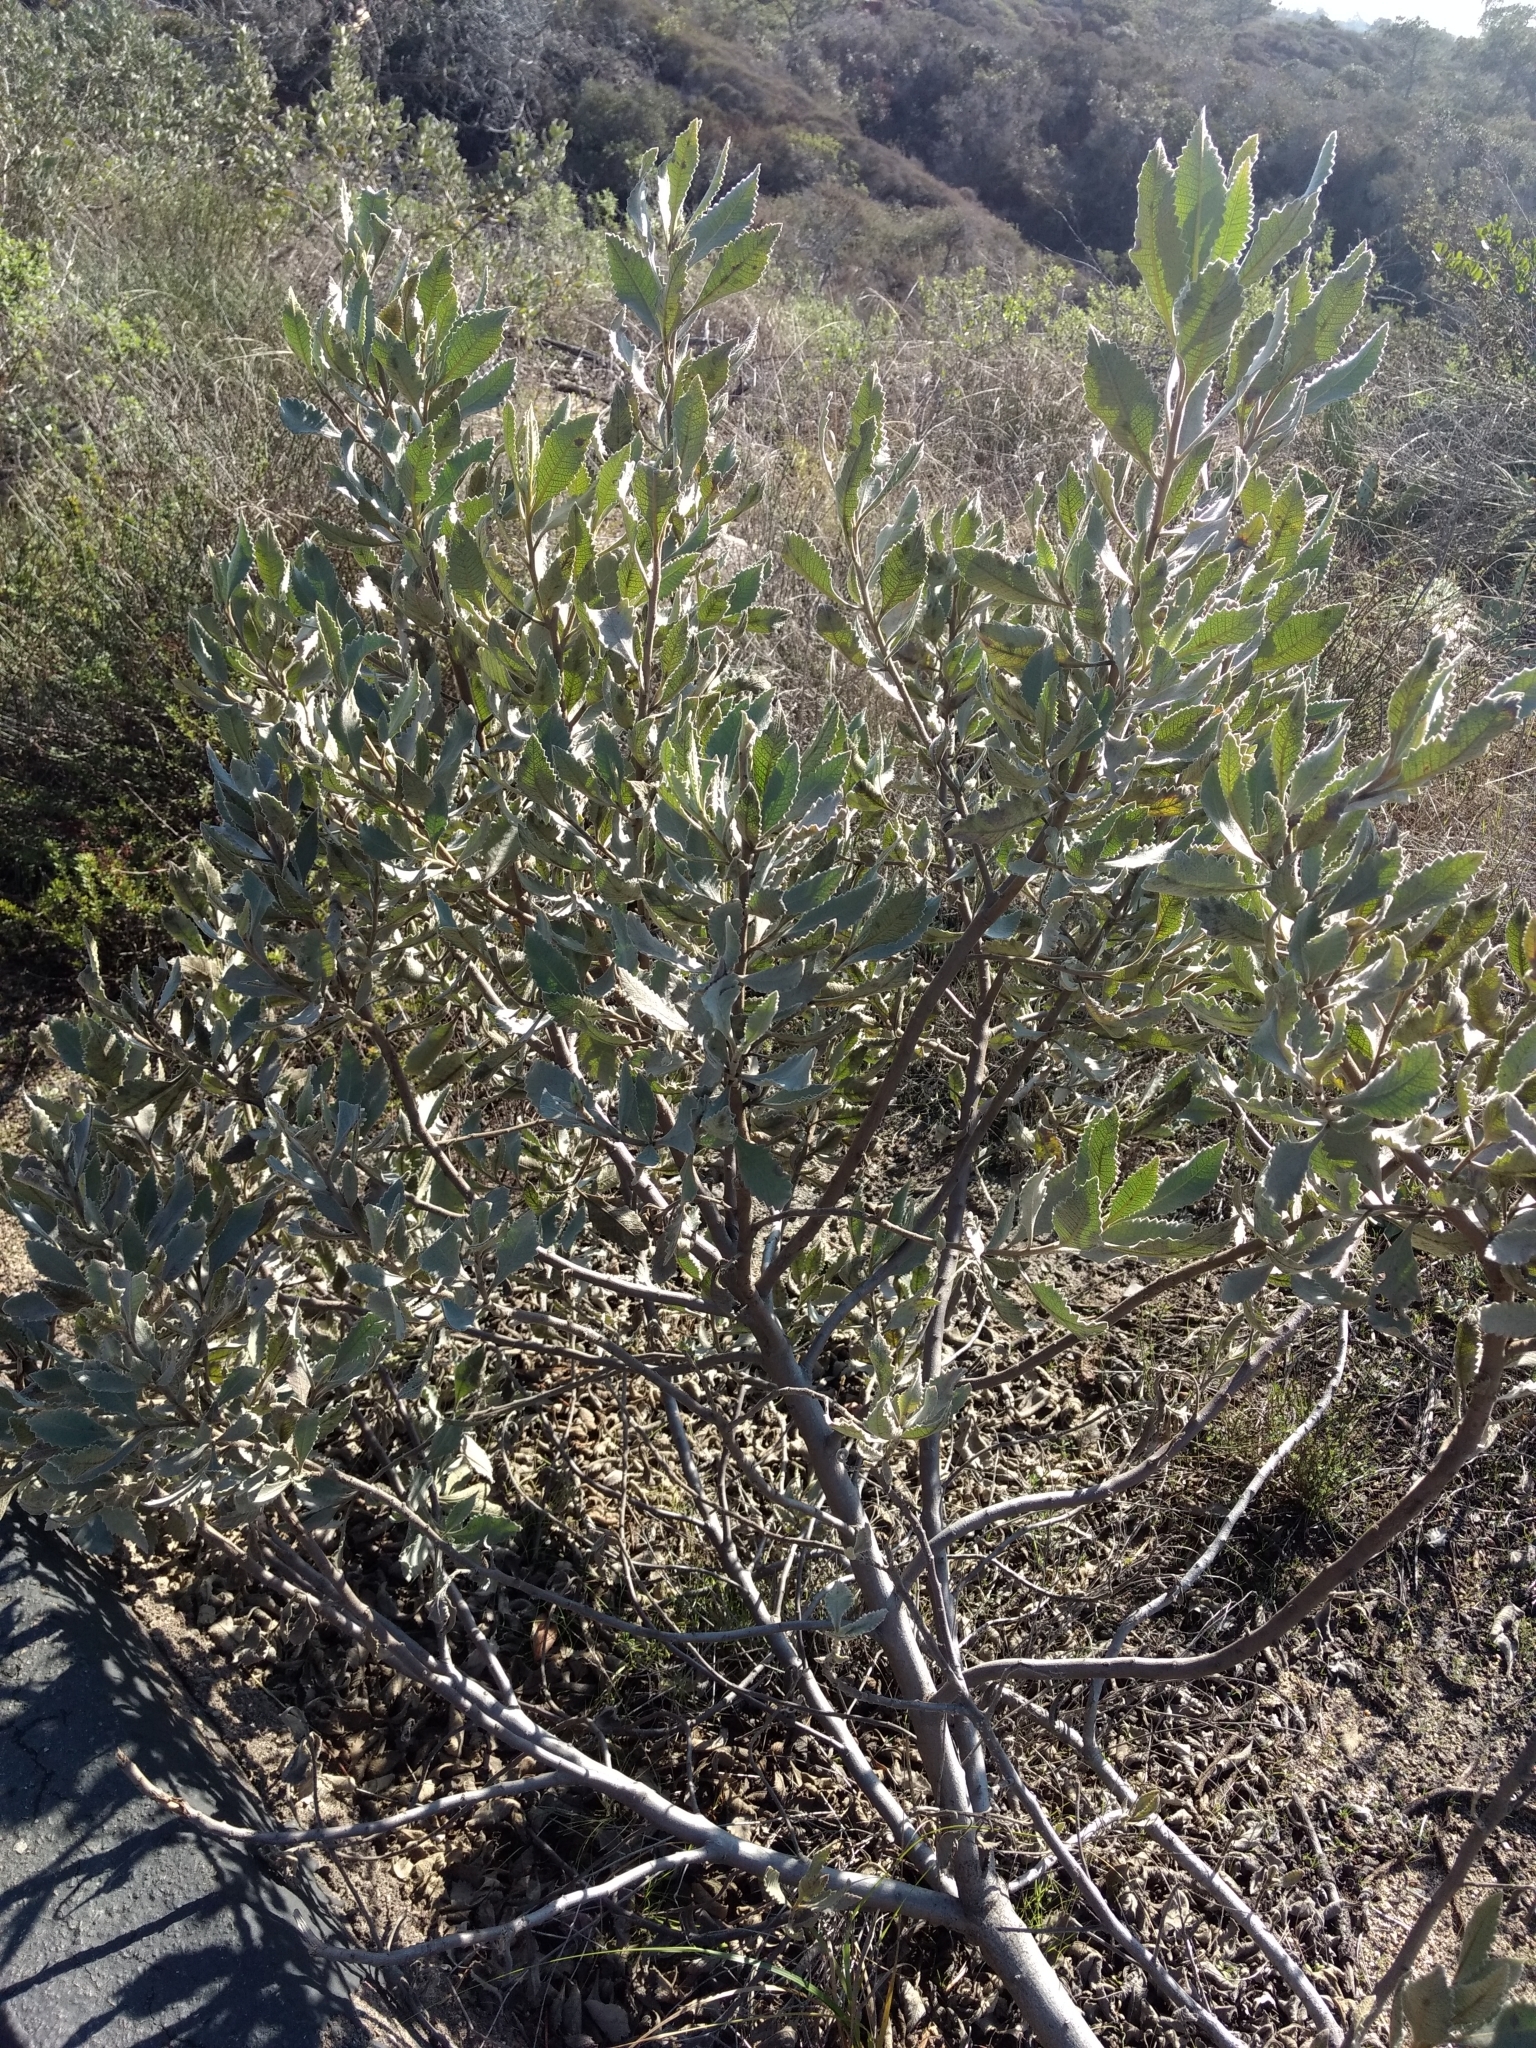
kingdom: Plantae
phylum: Tracheophyta
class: Magnoliopsida
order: Boraginales
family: Namaceae
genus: Eriodictyon
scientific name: Eriodictyon crassifolium
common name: Thick-leaf yerba-santa
